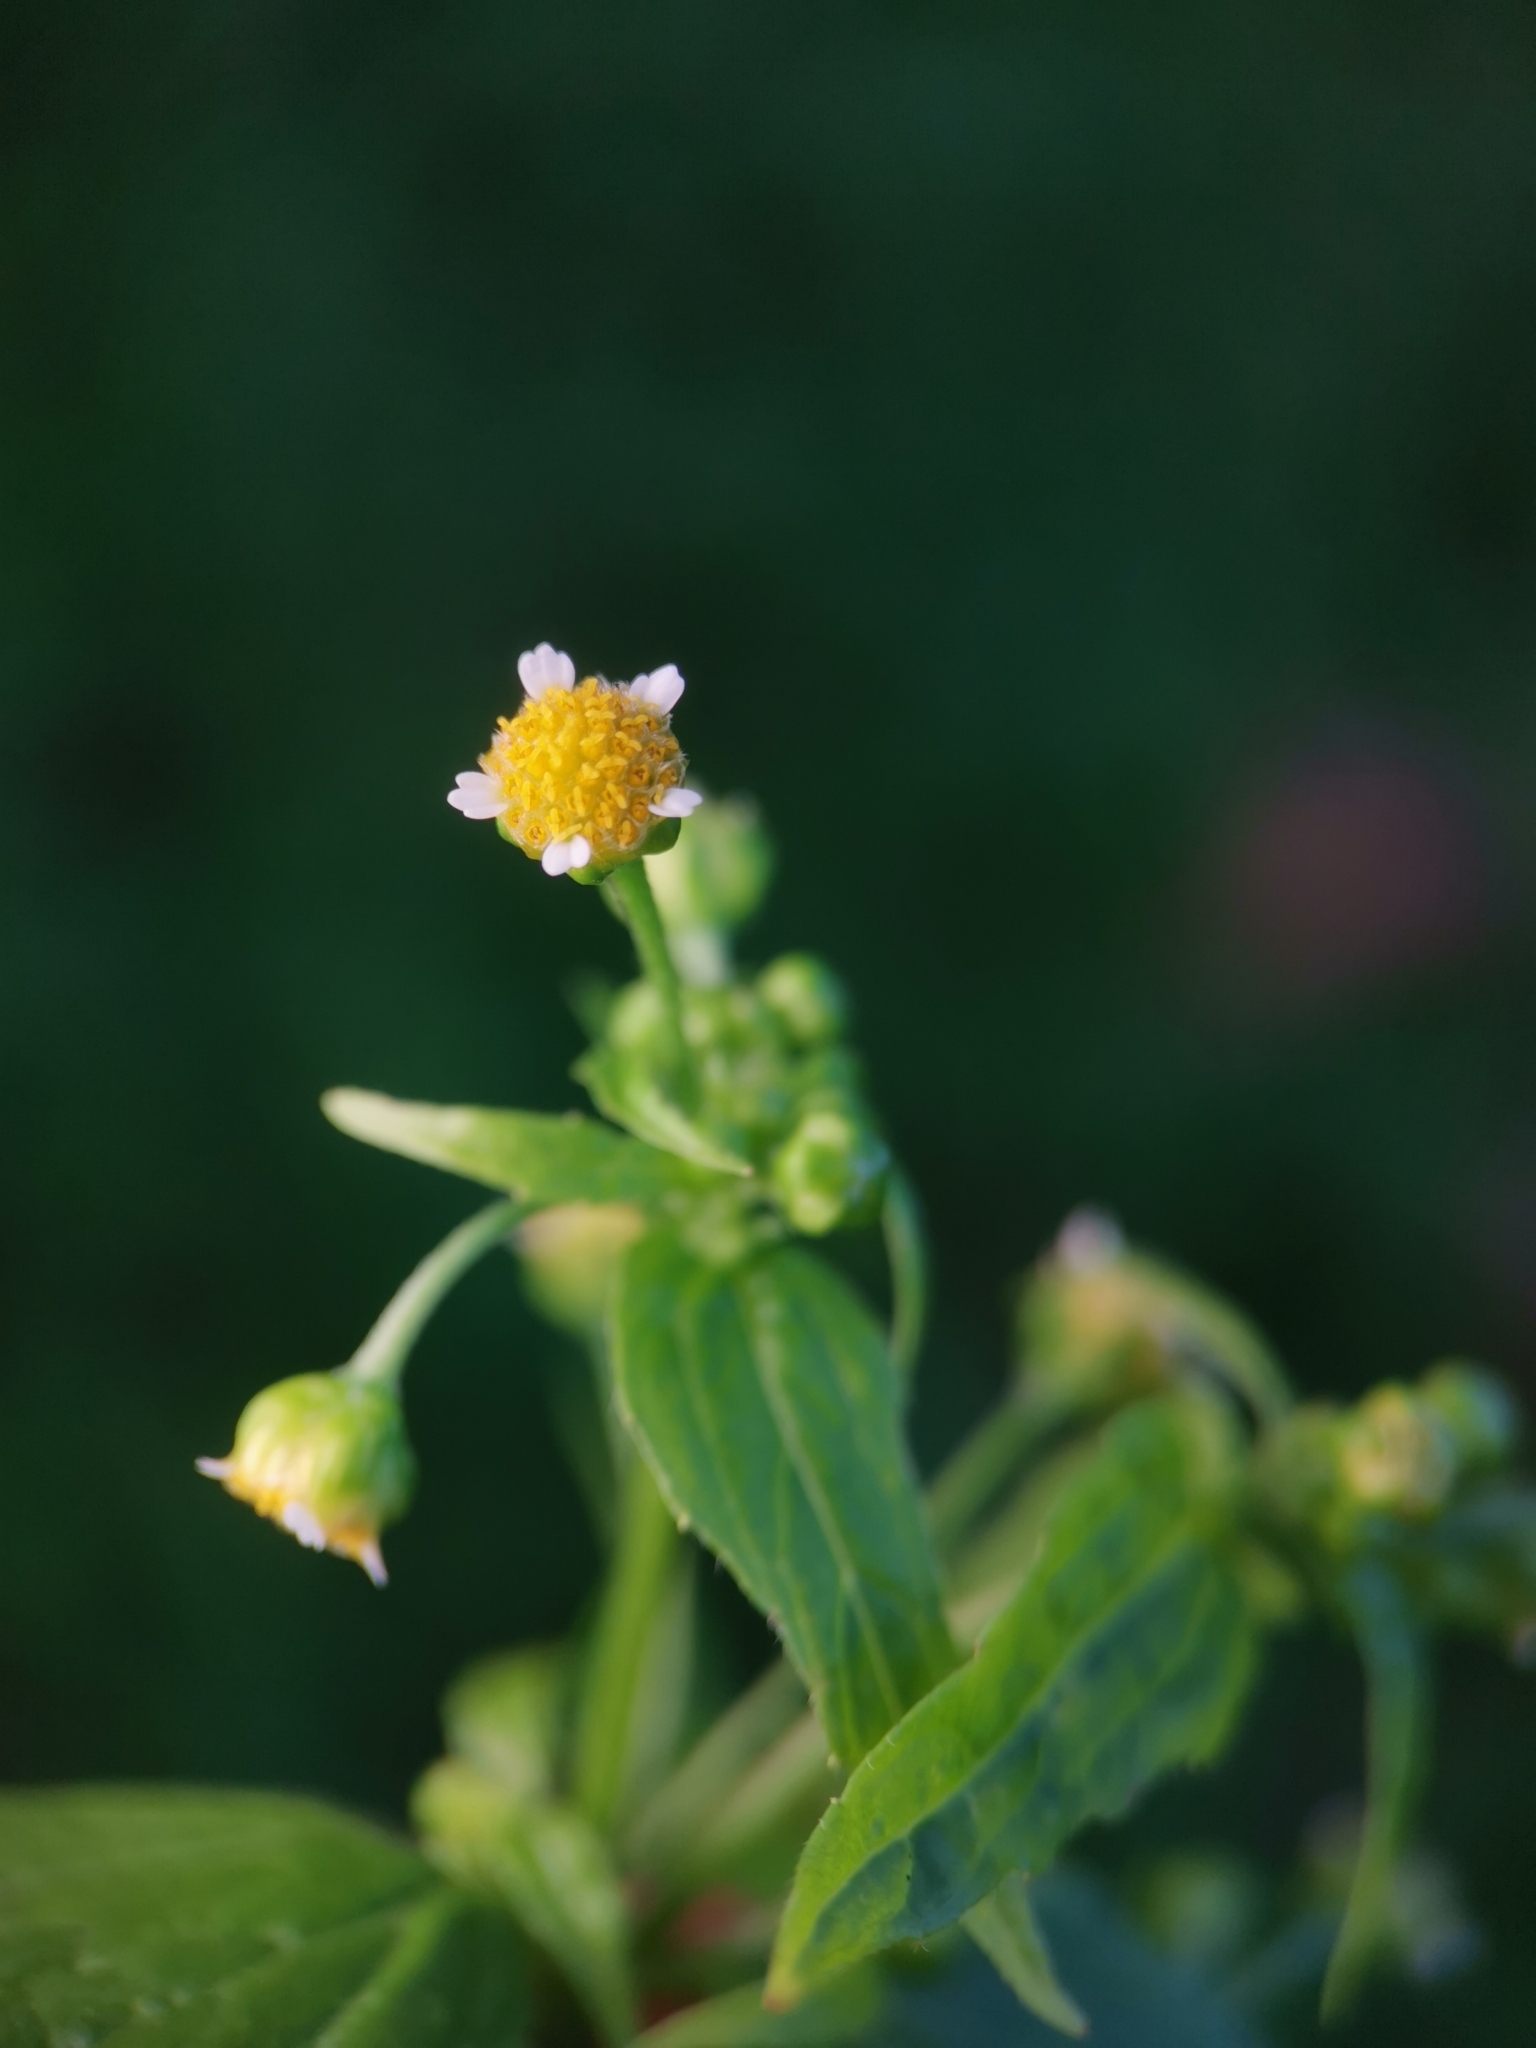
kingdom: Plantae
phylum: Tracheophyta
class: Magnoliopsida
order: Asterales
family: Asteraceae
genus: Galinsoga
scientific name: Galinsoga parviflora
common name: Gallant soldier
